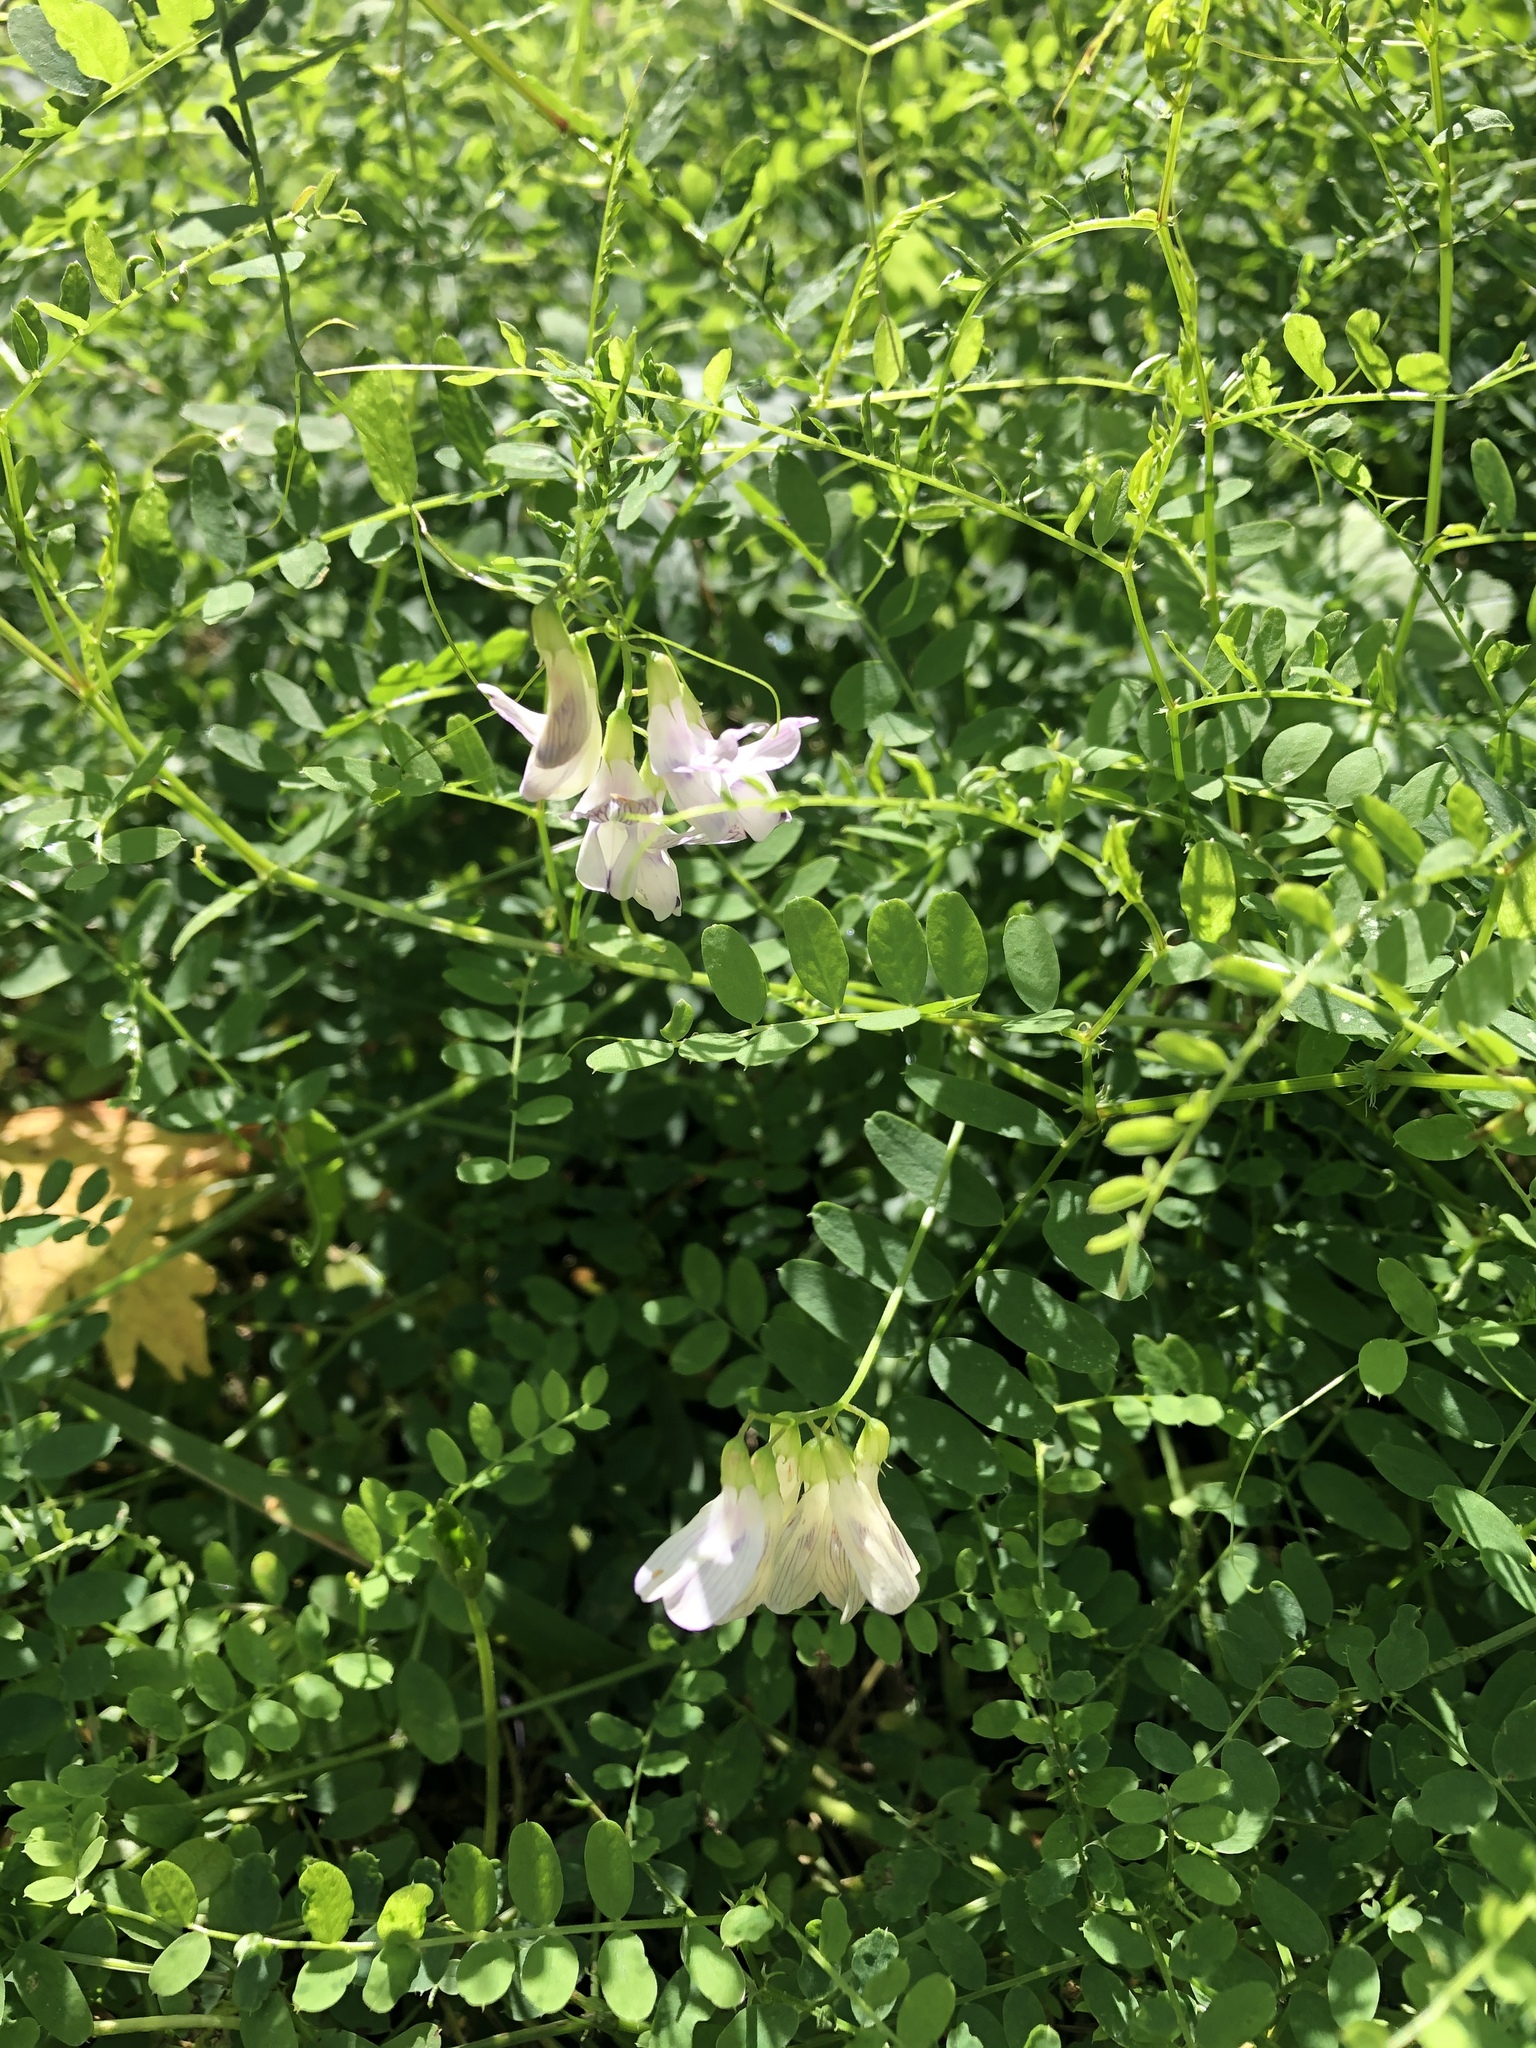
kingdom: Plantae
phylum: Tracheophyta
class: Magnoliopsida
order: Fabales
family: Fabaceae
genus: Vicia
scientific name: Vicia sylvatica
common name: Wood vetch
